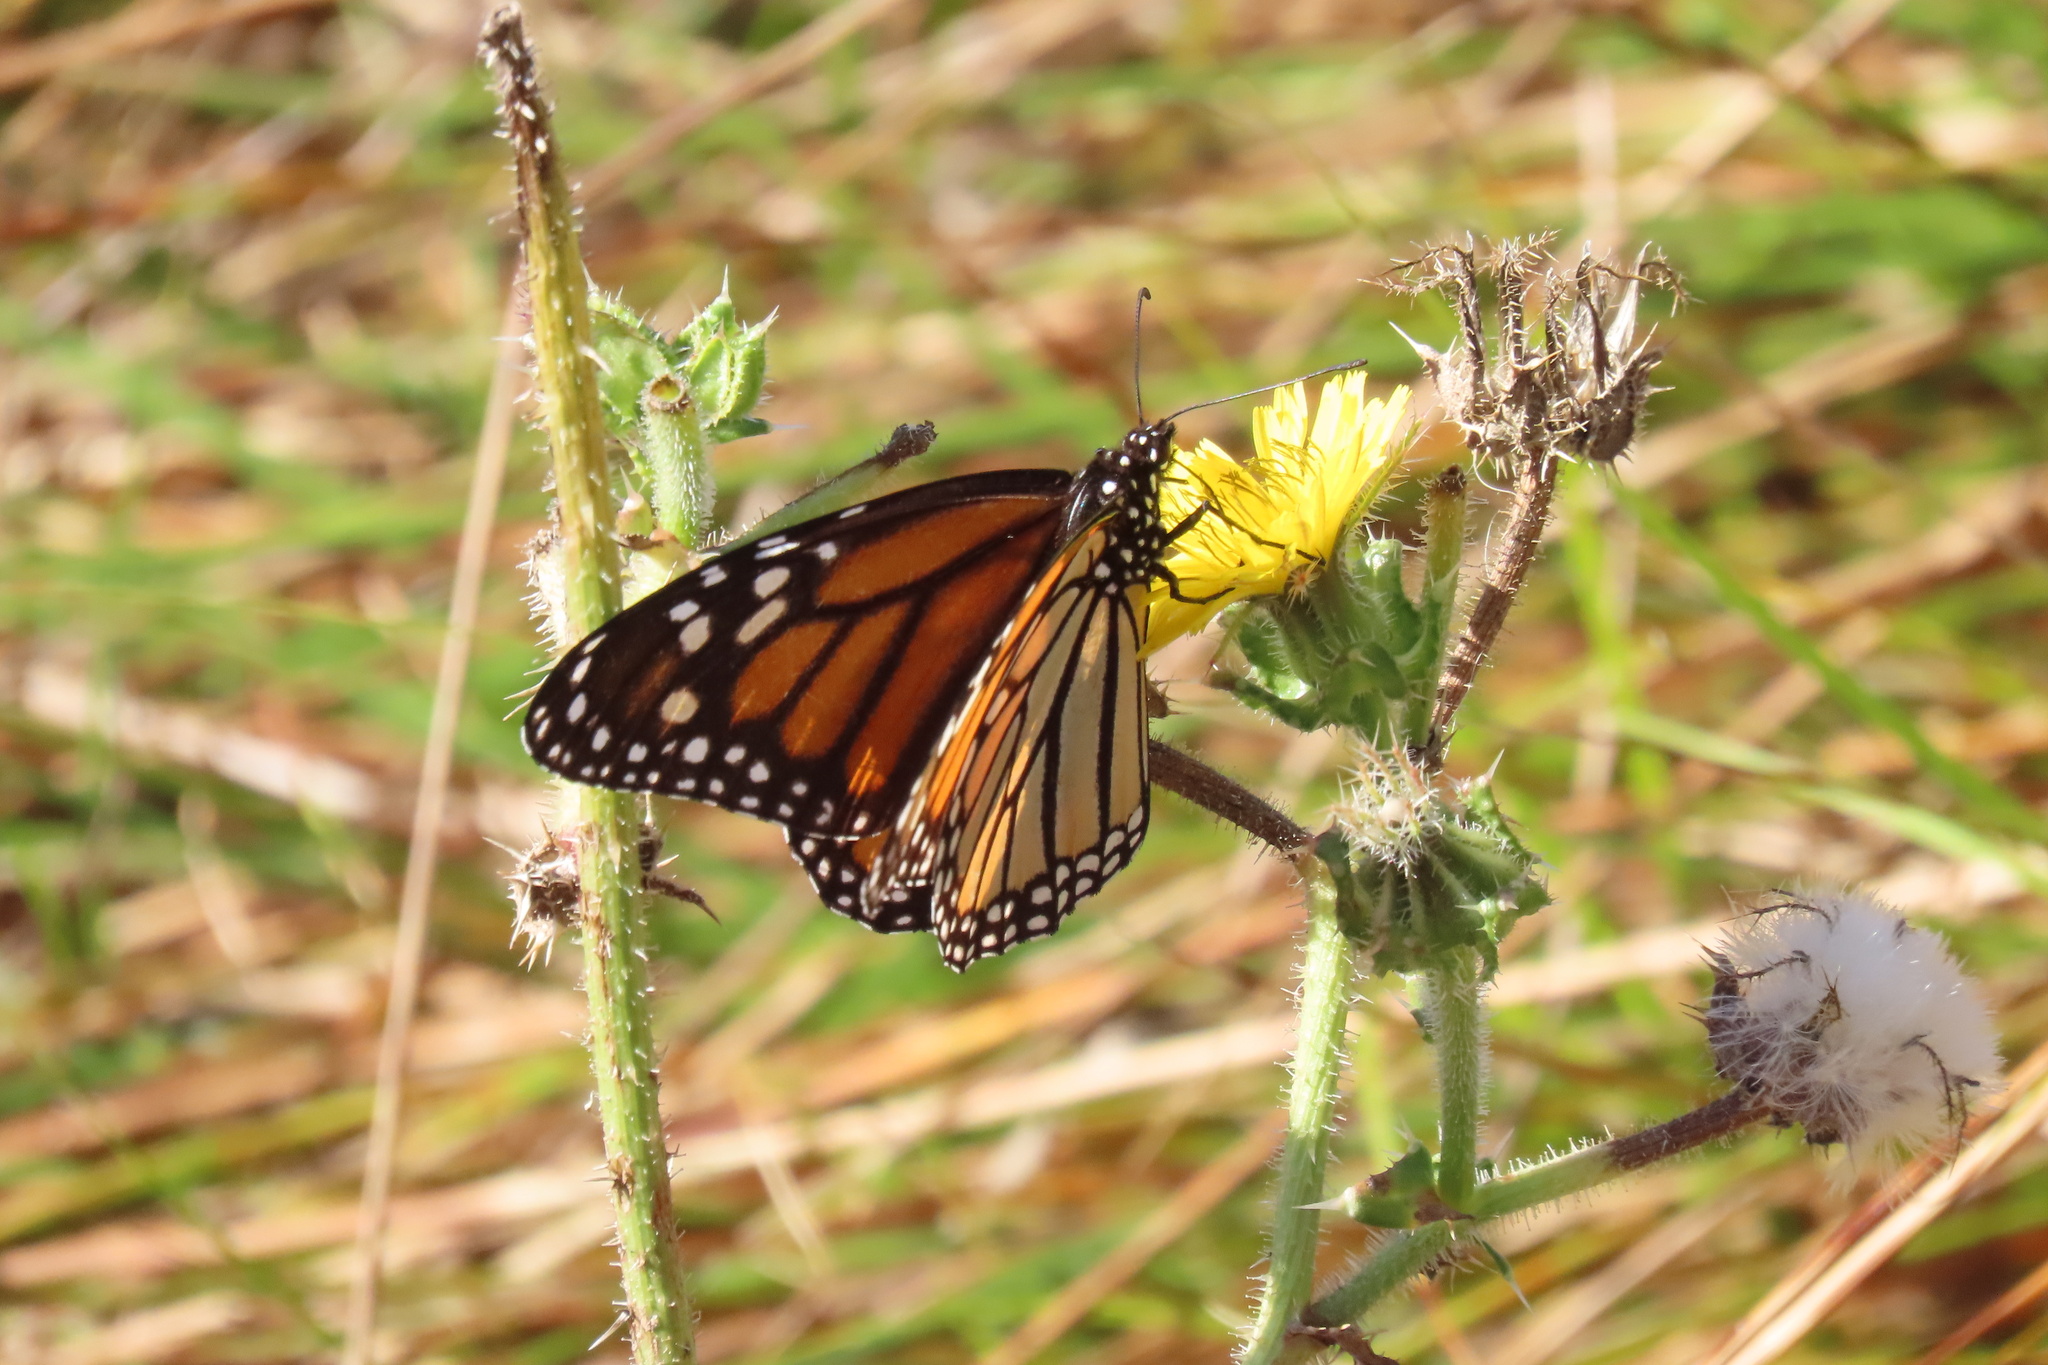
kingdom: Animalia
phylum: Arthropoda
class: Insecta
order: Lepidoptera
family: Nymphalidae
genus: Danaus
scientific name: Danaus plexippus
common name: Monarch
